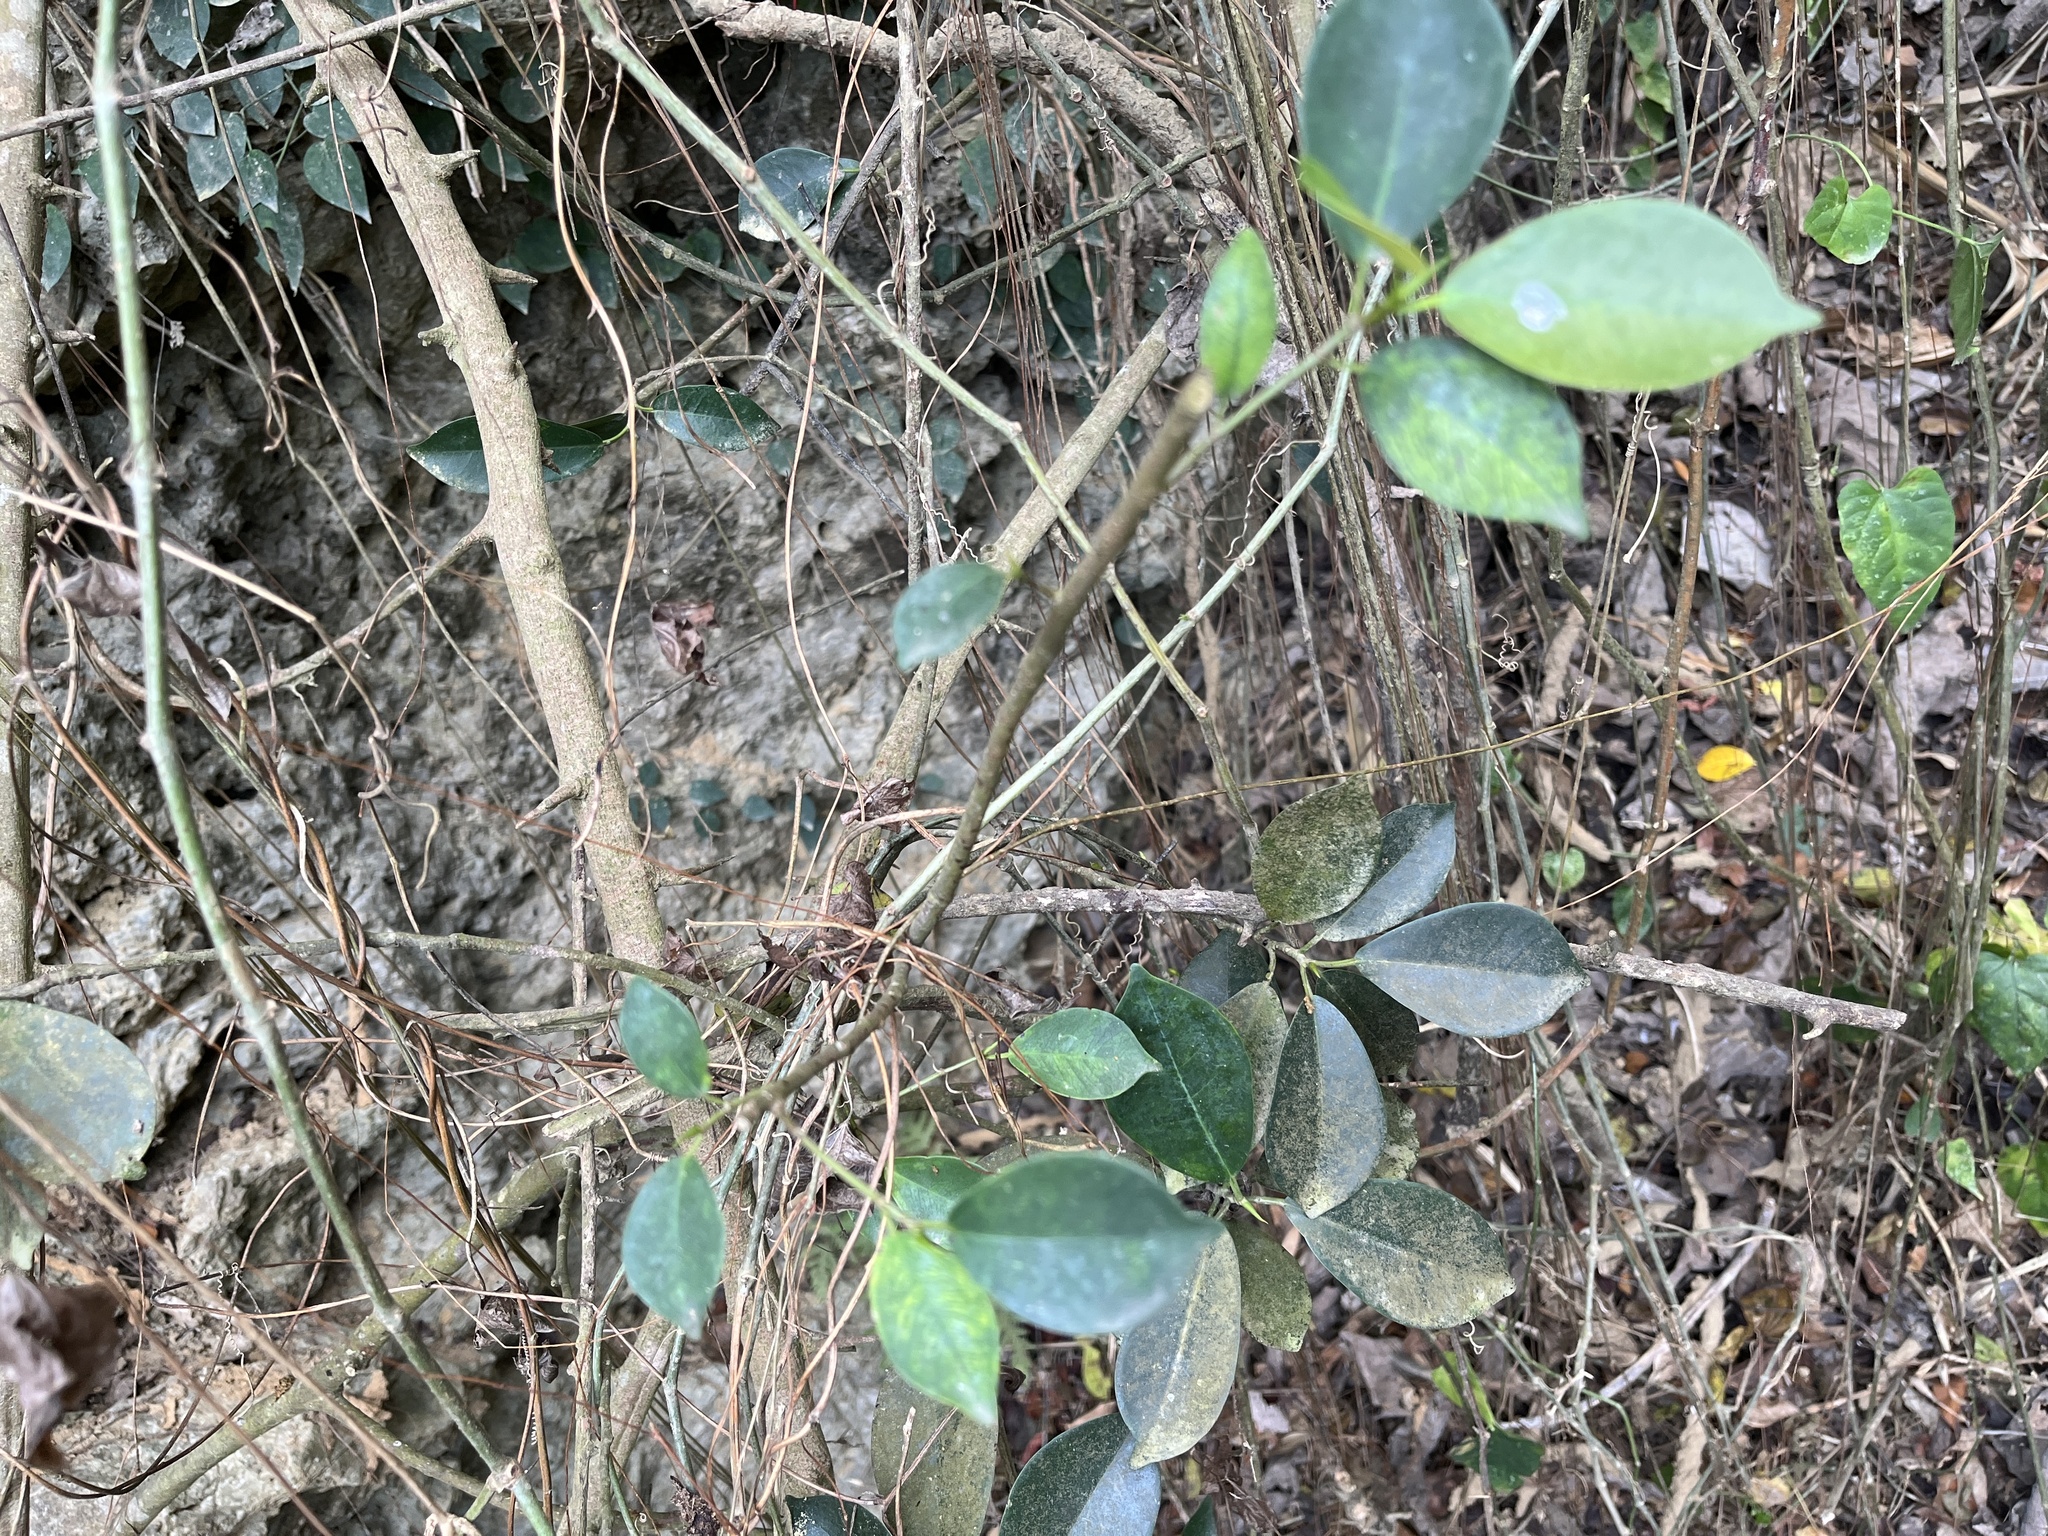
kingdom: Plantae
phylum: Tracheophyta
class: Magnoliopsida
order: Rosales
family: Moraceae
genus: Ficus
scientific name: Ficus microcarpa
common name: Chinese banyan
